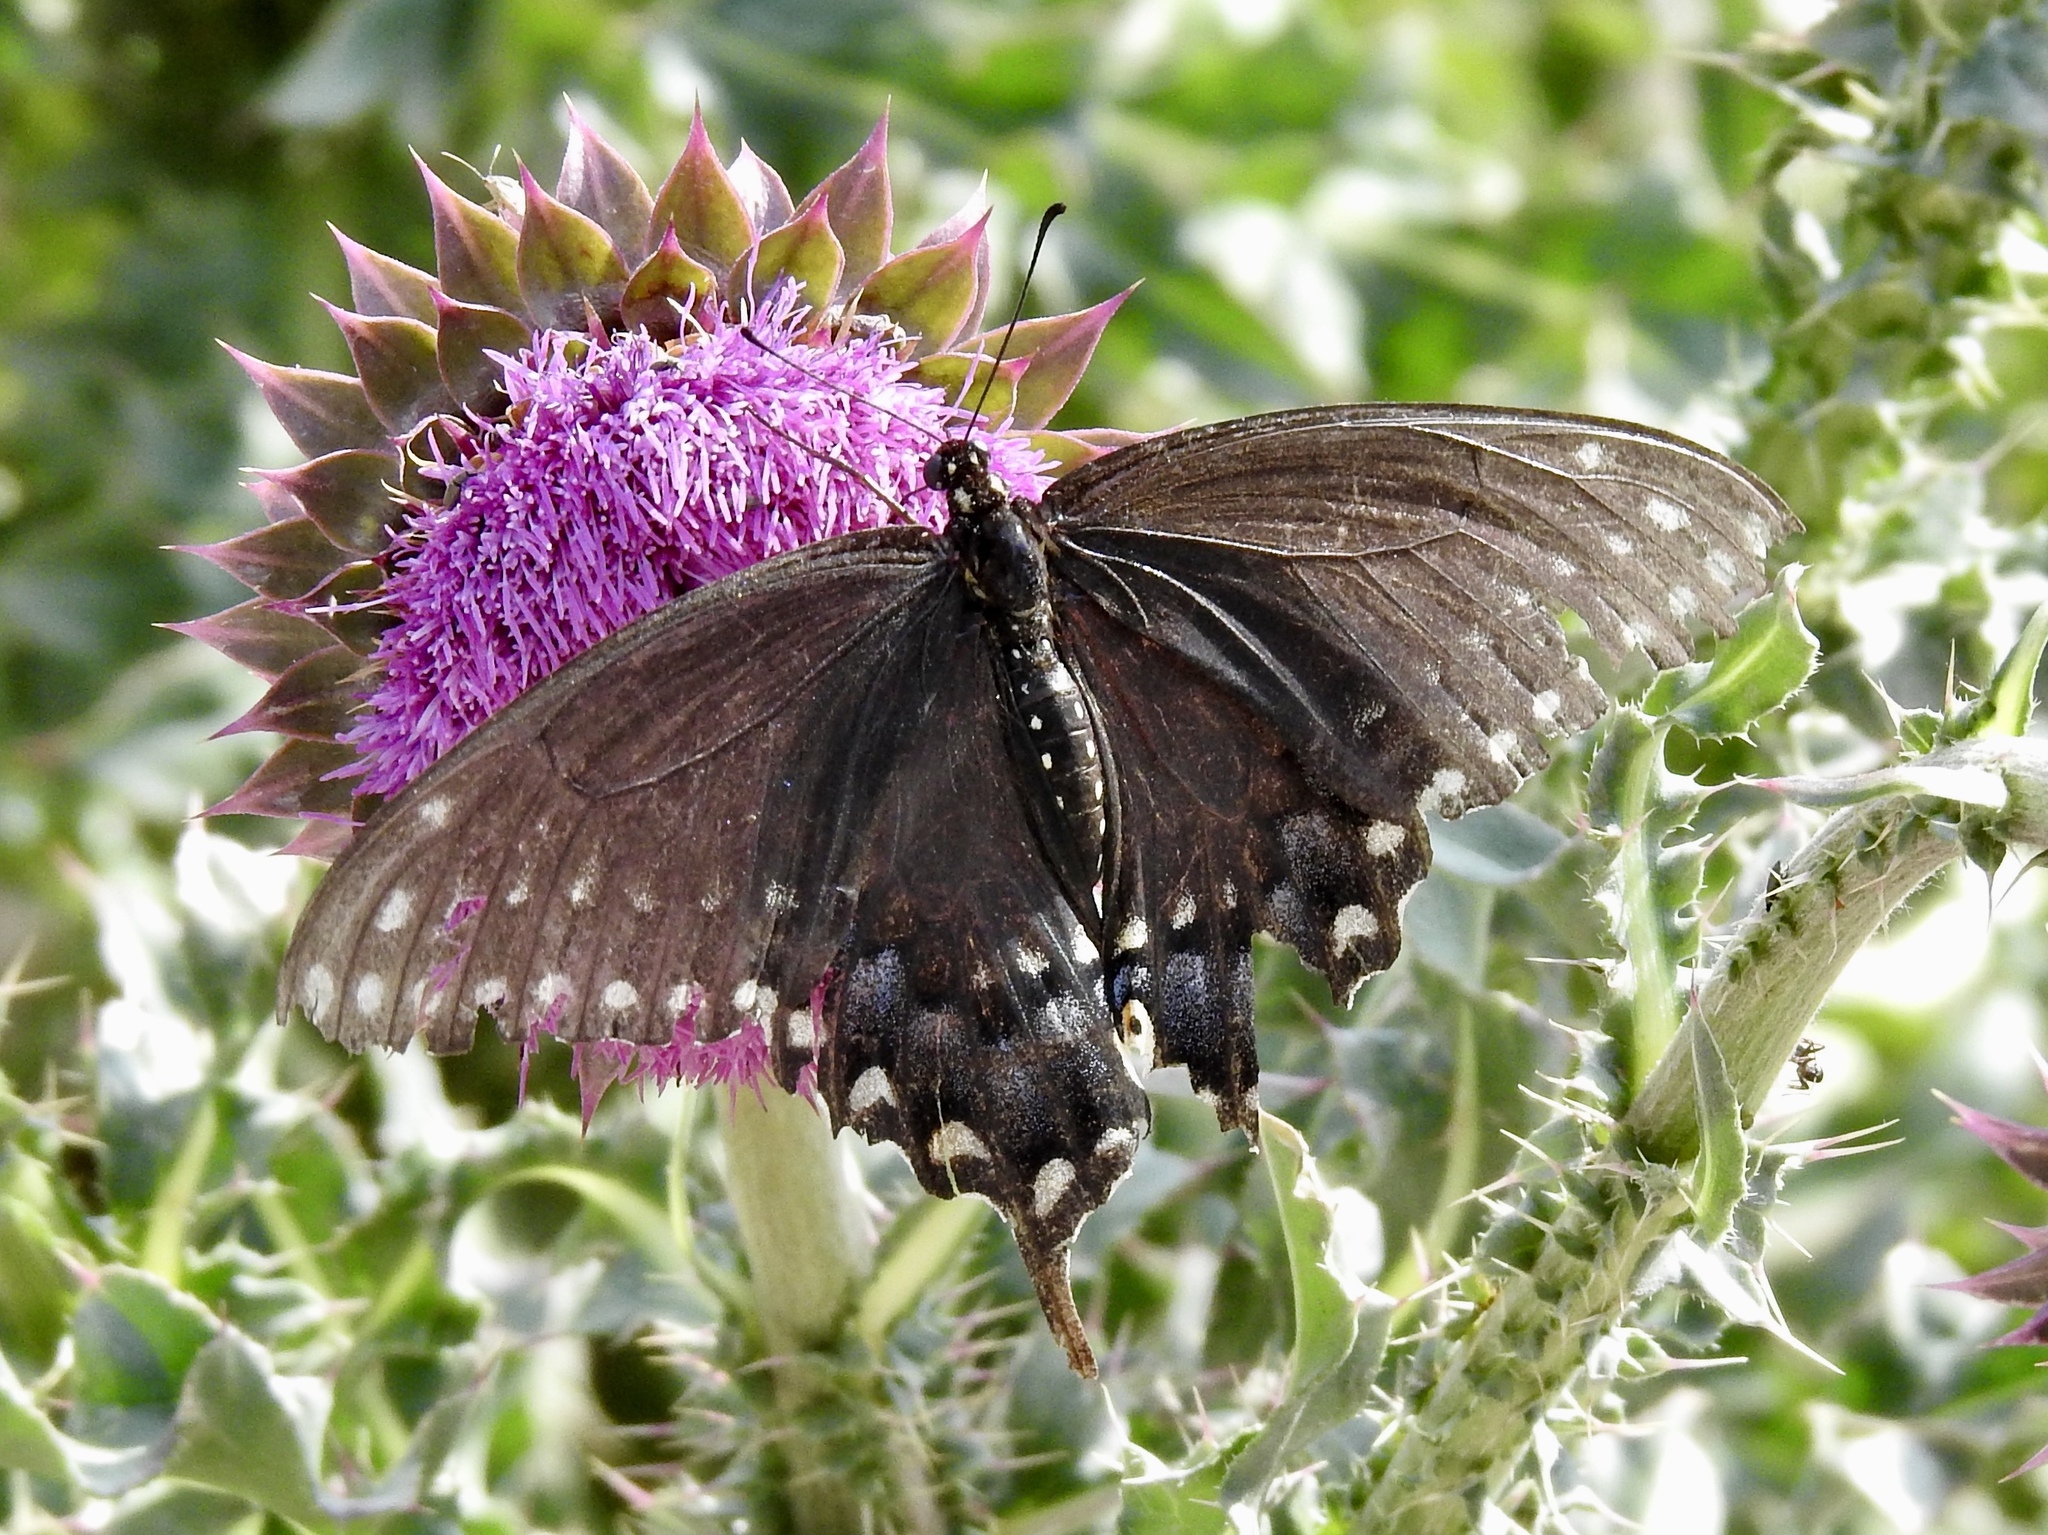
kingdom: Animalia
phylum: Arthropoda
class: Insecta
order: Lepidoptera
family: Papilionidae
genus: Papilio
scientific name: Papilio polyxenes
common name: Black swallowtail
